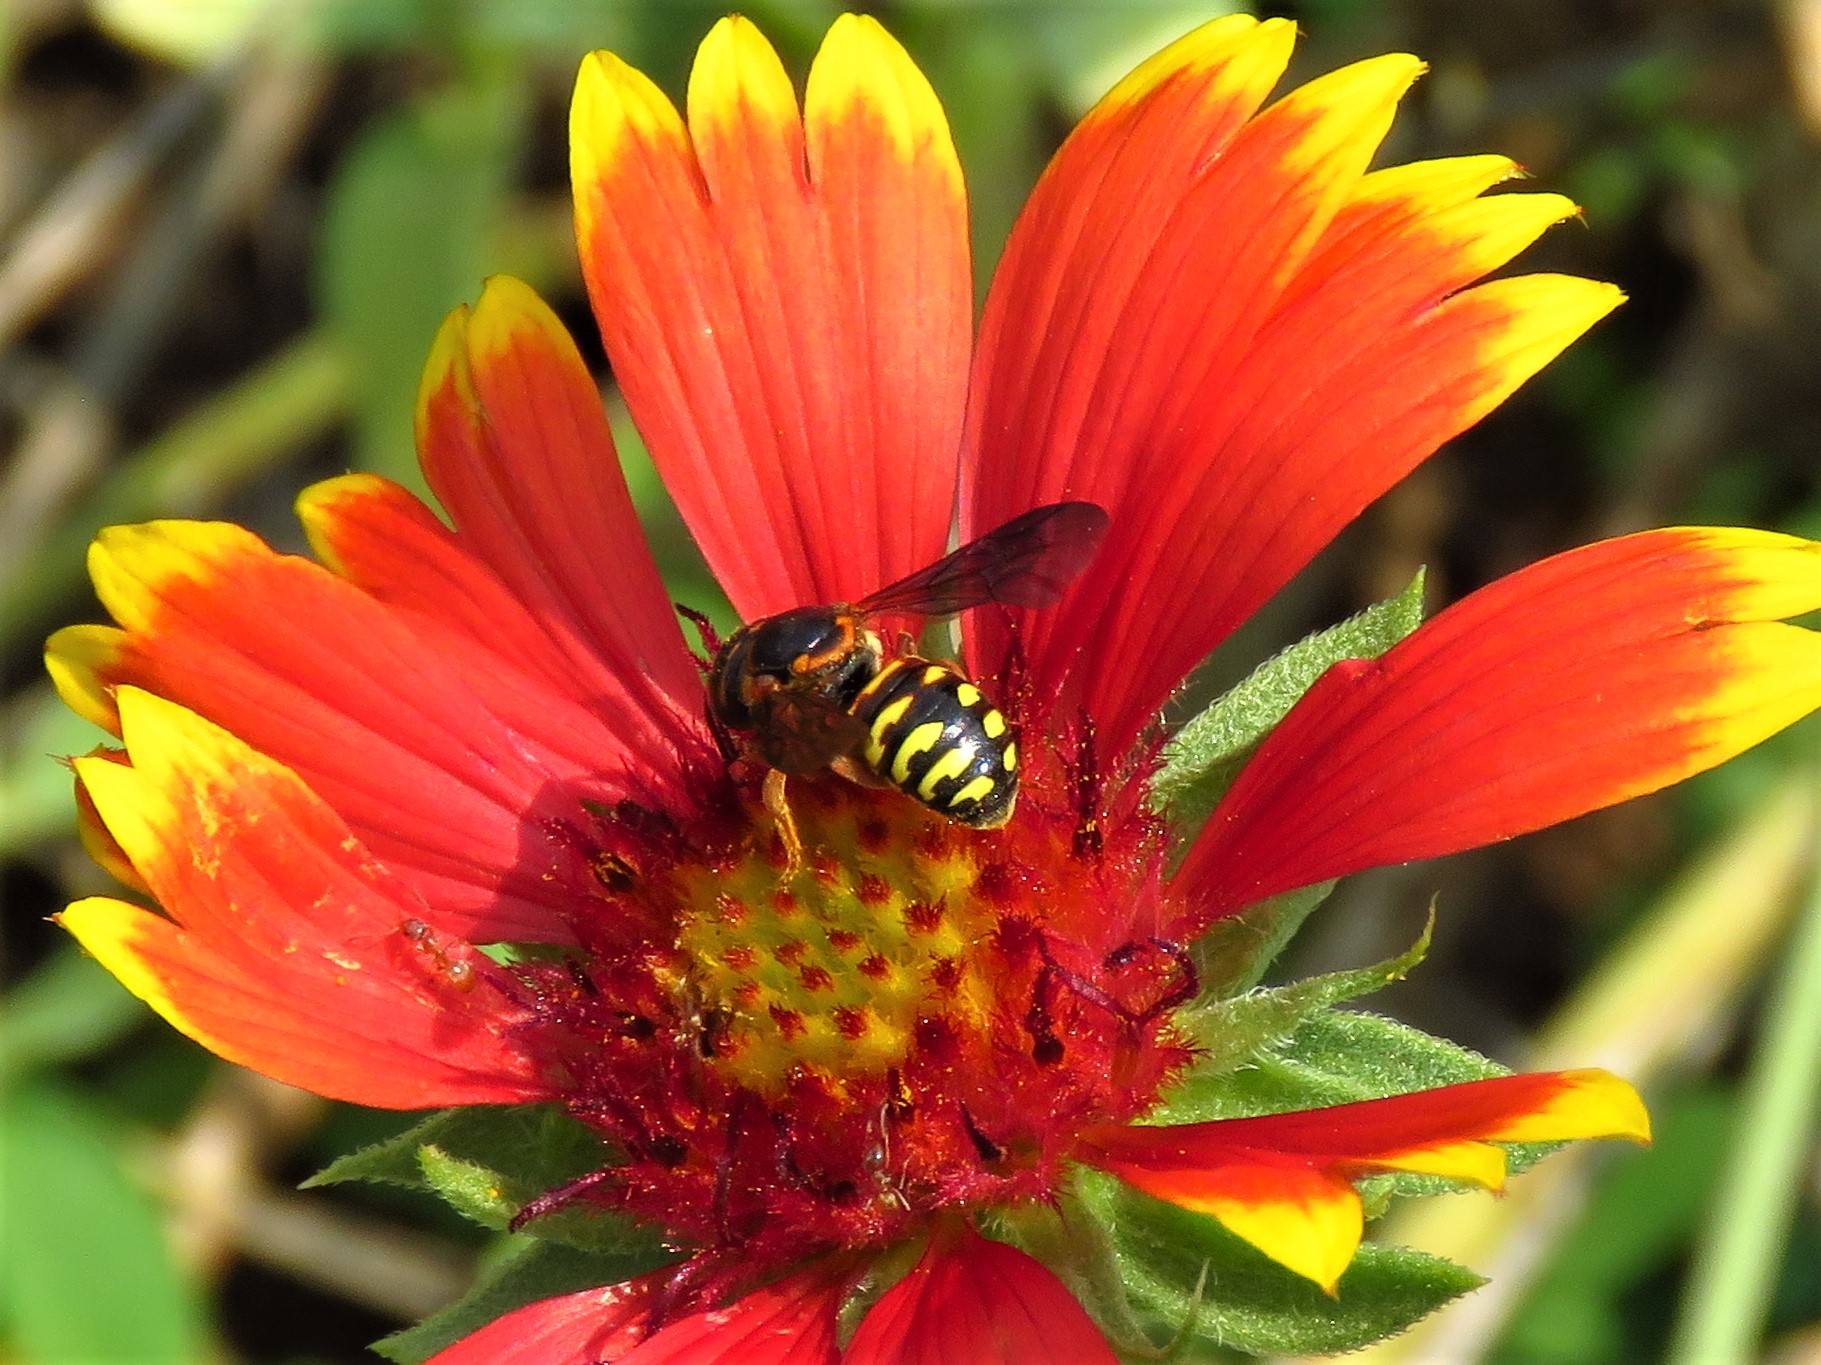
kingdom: Animalia
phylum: Arthropoda
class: Insecta
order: Hymenoptera
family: Megachilidae
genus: Dianthidium
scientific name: Dianthidium curvatum
